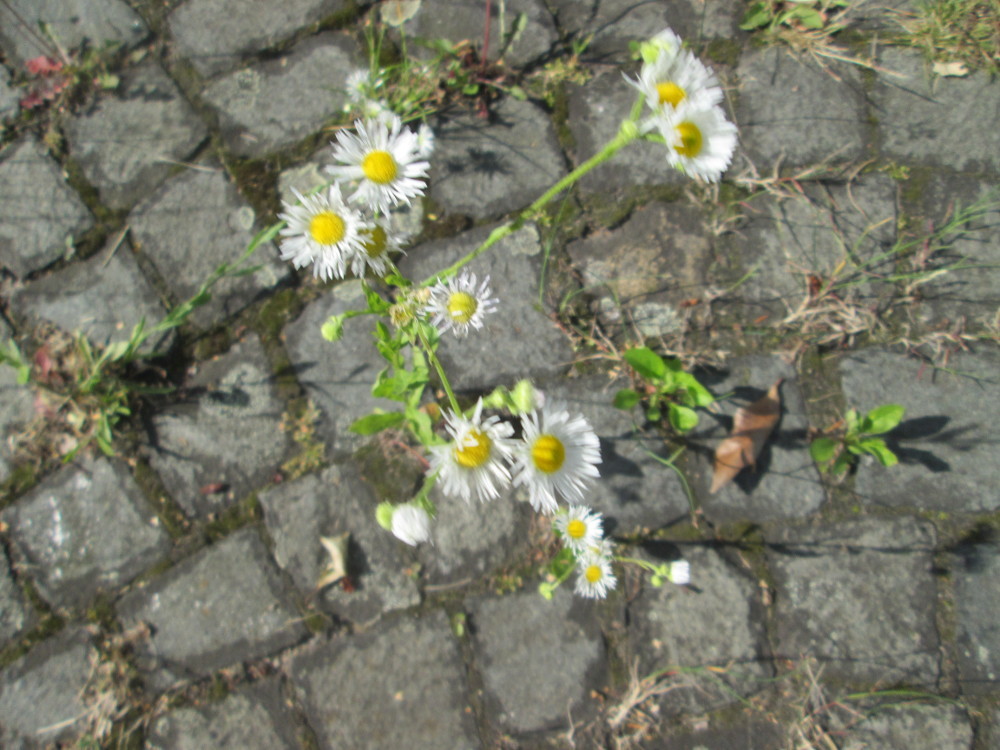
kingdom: Plantae
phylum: Tracheophyta
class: Magnoliopsida
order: Asterales
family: Asteraceae
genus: Erigeron
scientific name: Erigeron annuus
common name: Tall fleabane
